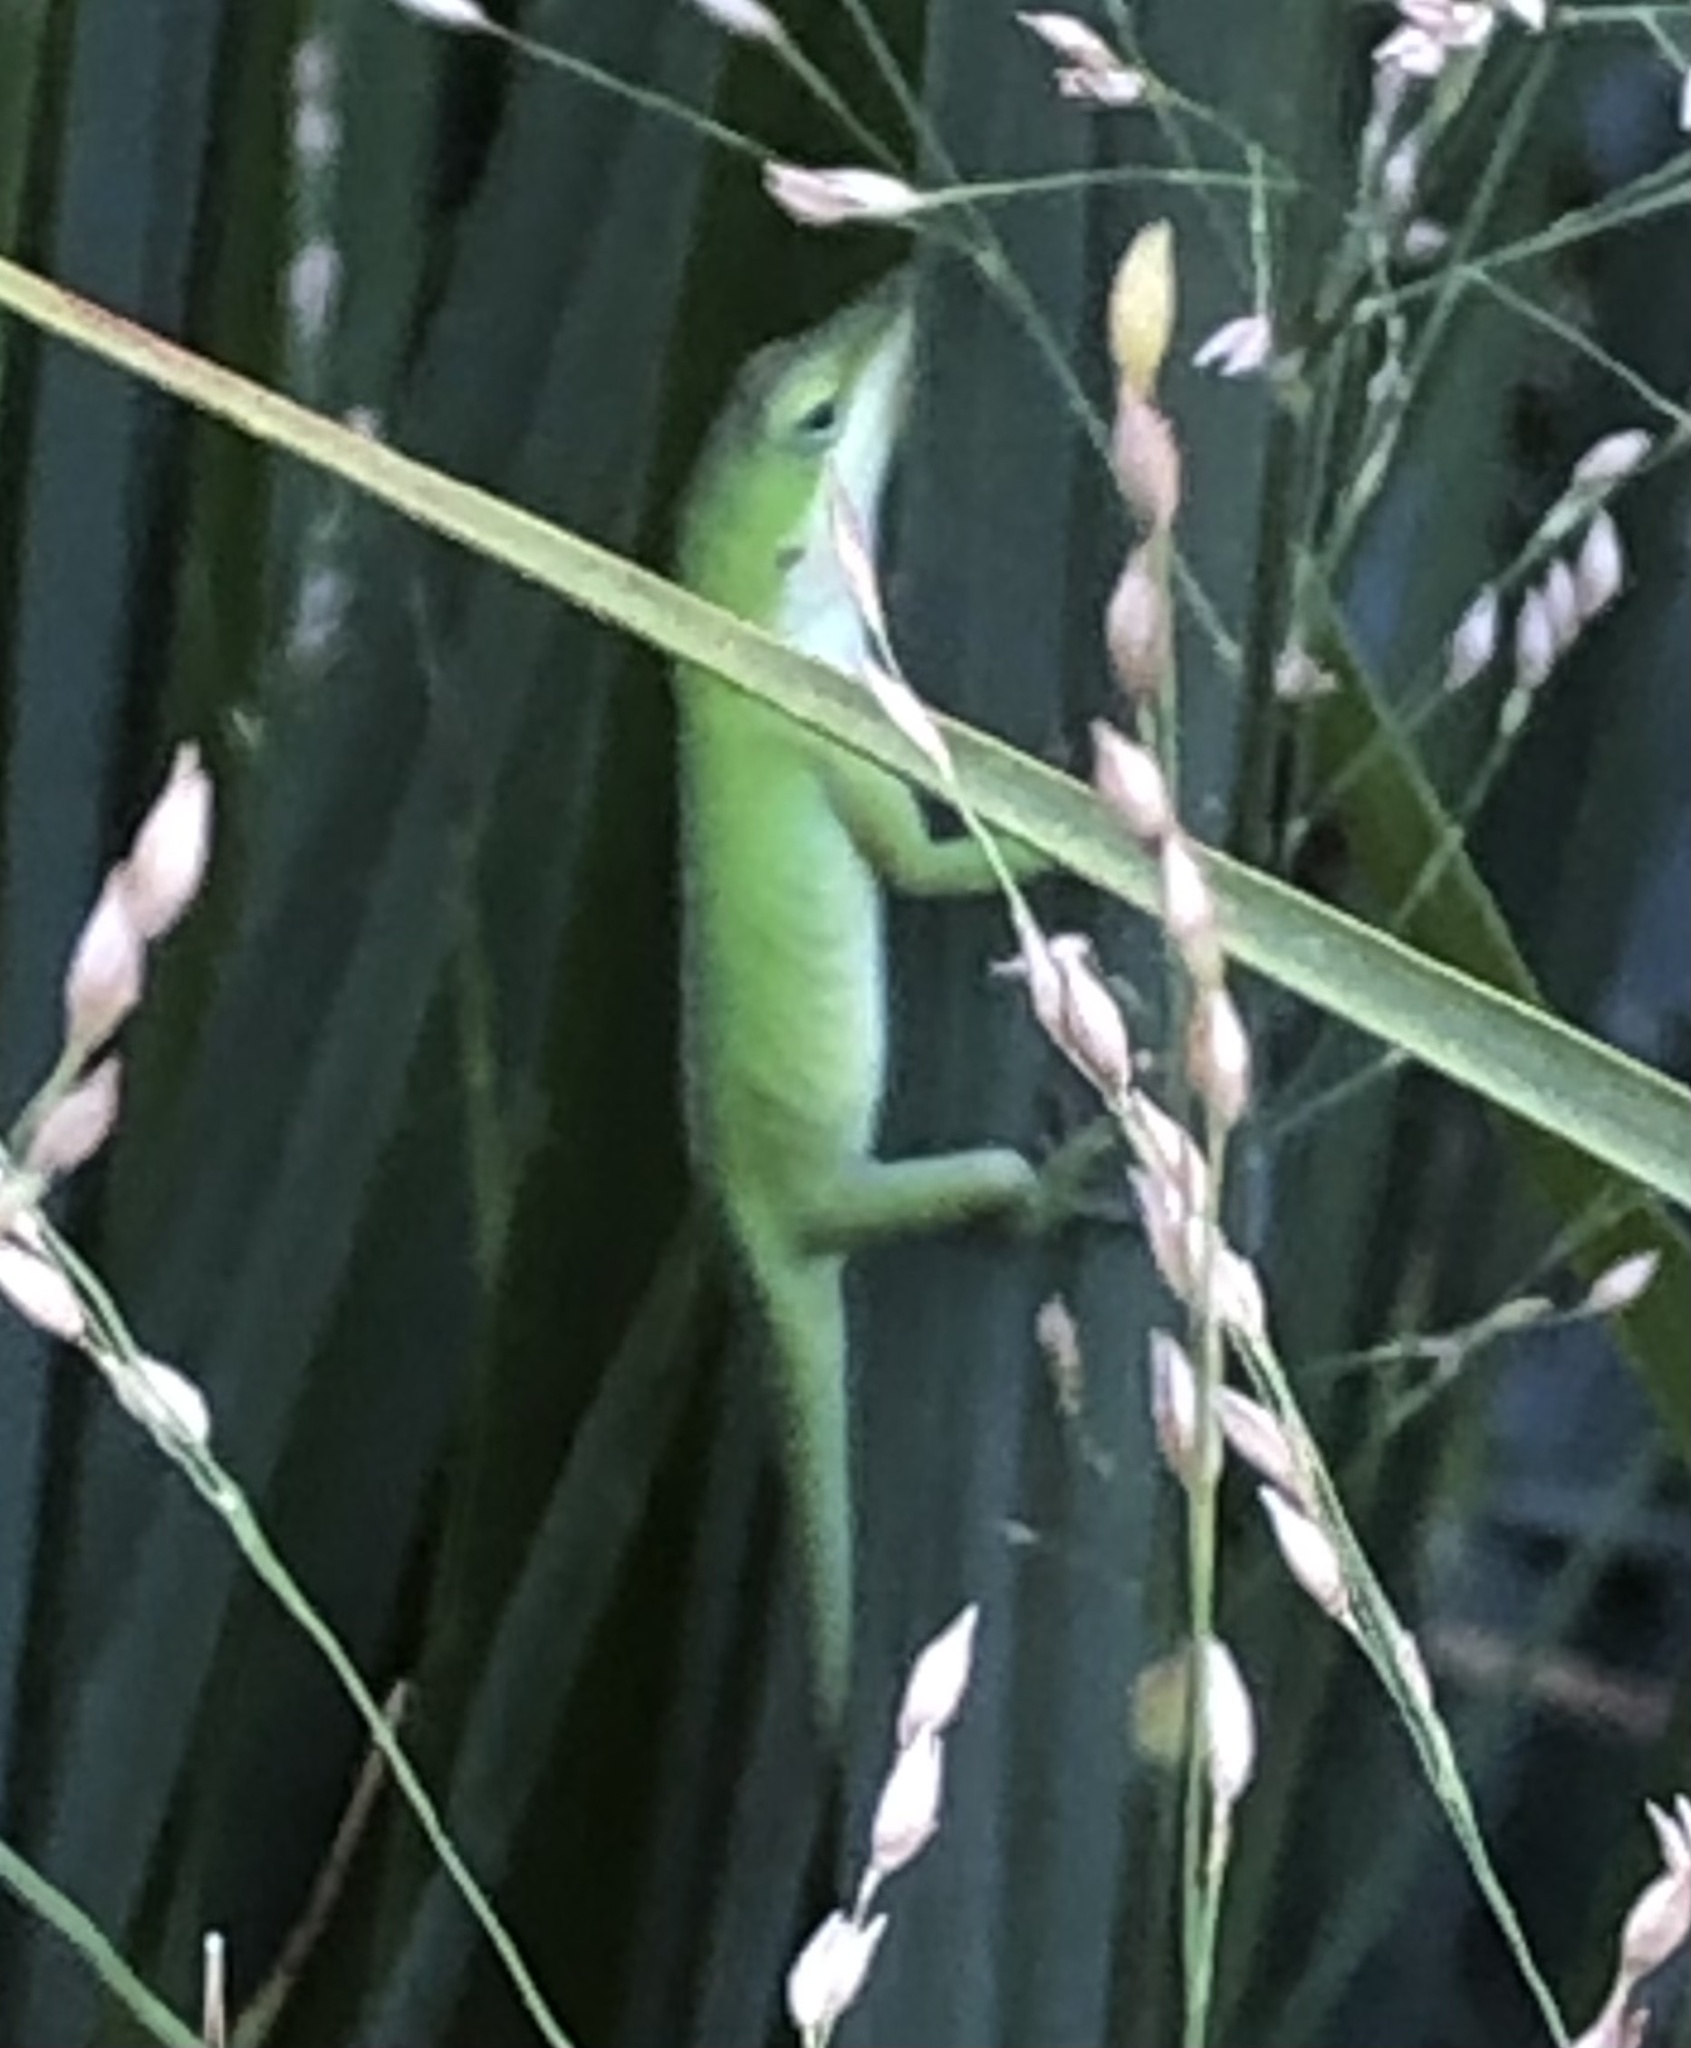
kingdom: Animalia
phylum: Chordata
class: Squamata
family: Dactyloidae
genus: Anolis
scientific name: Anolis carolinensis
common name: Green anole
